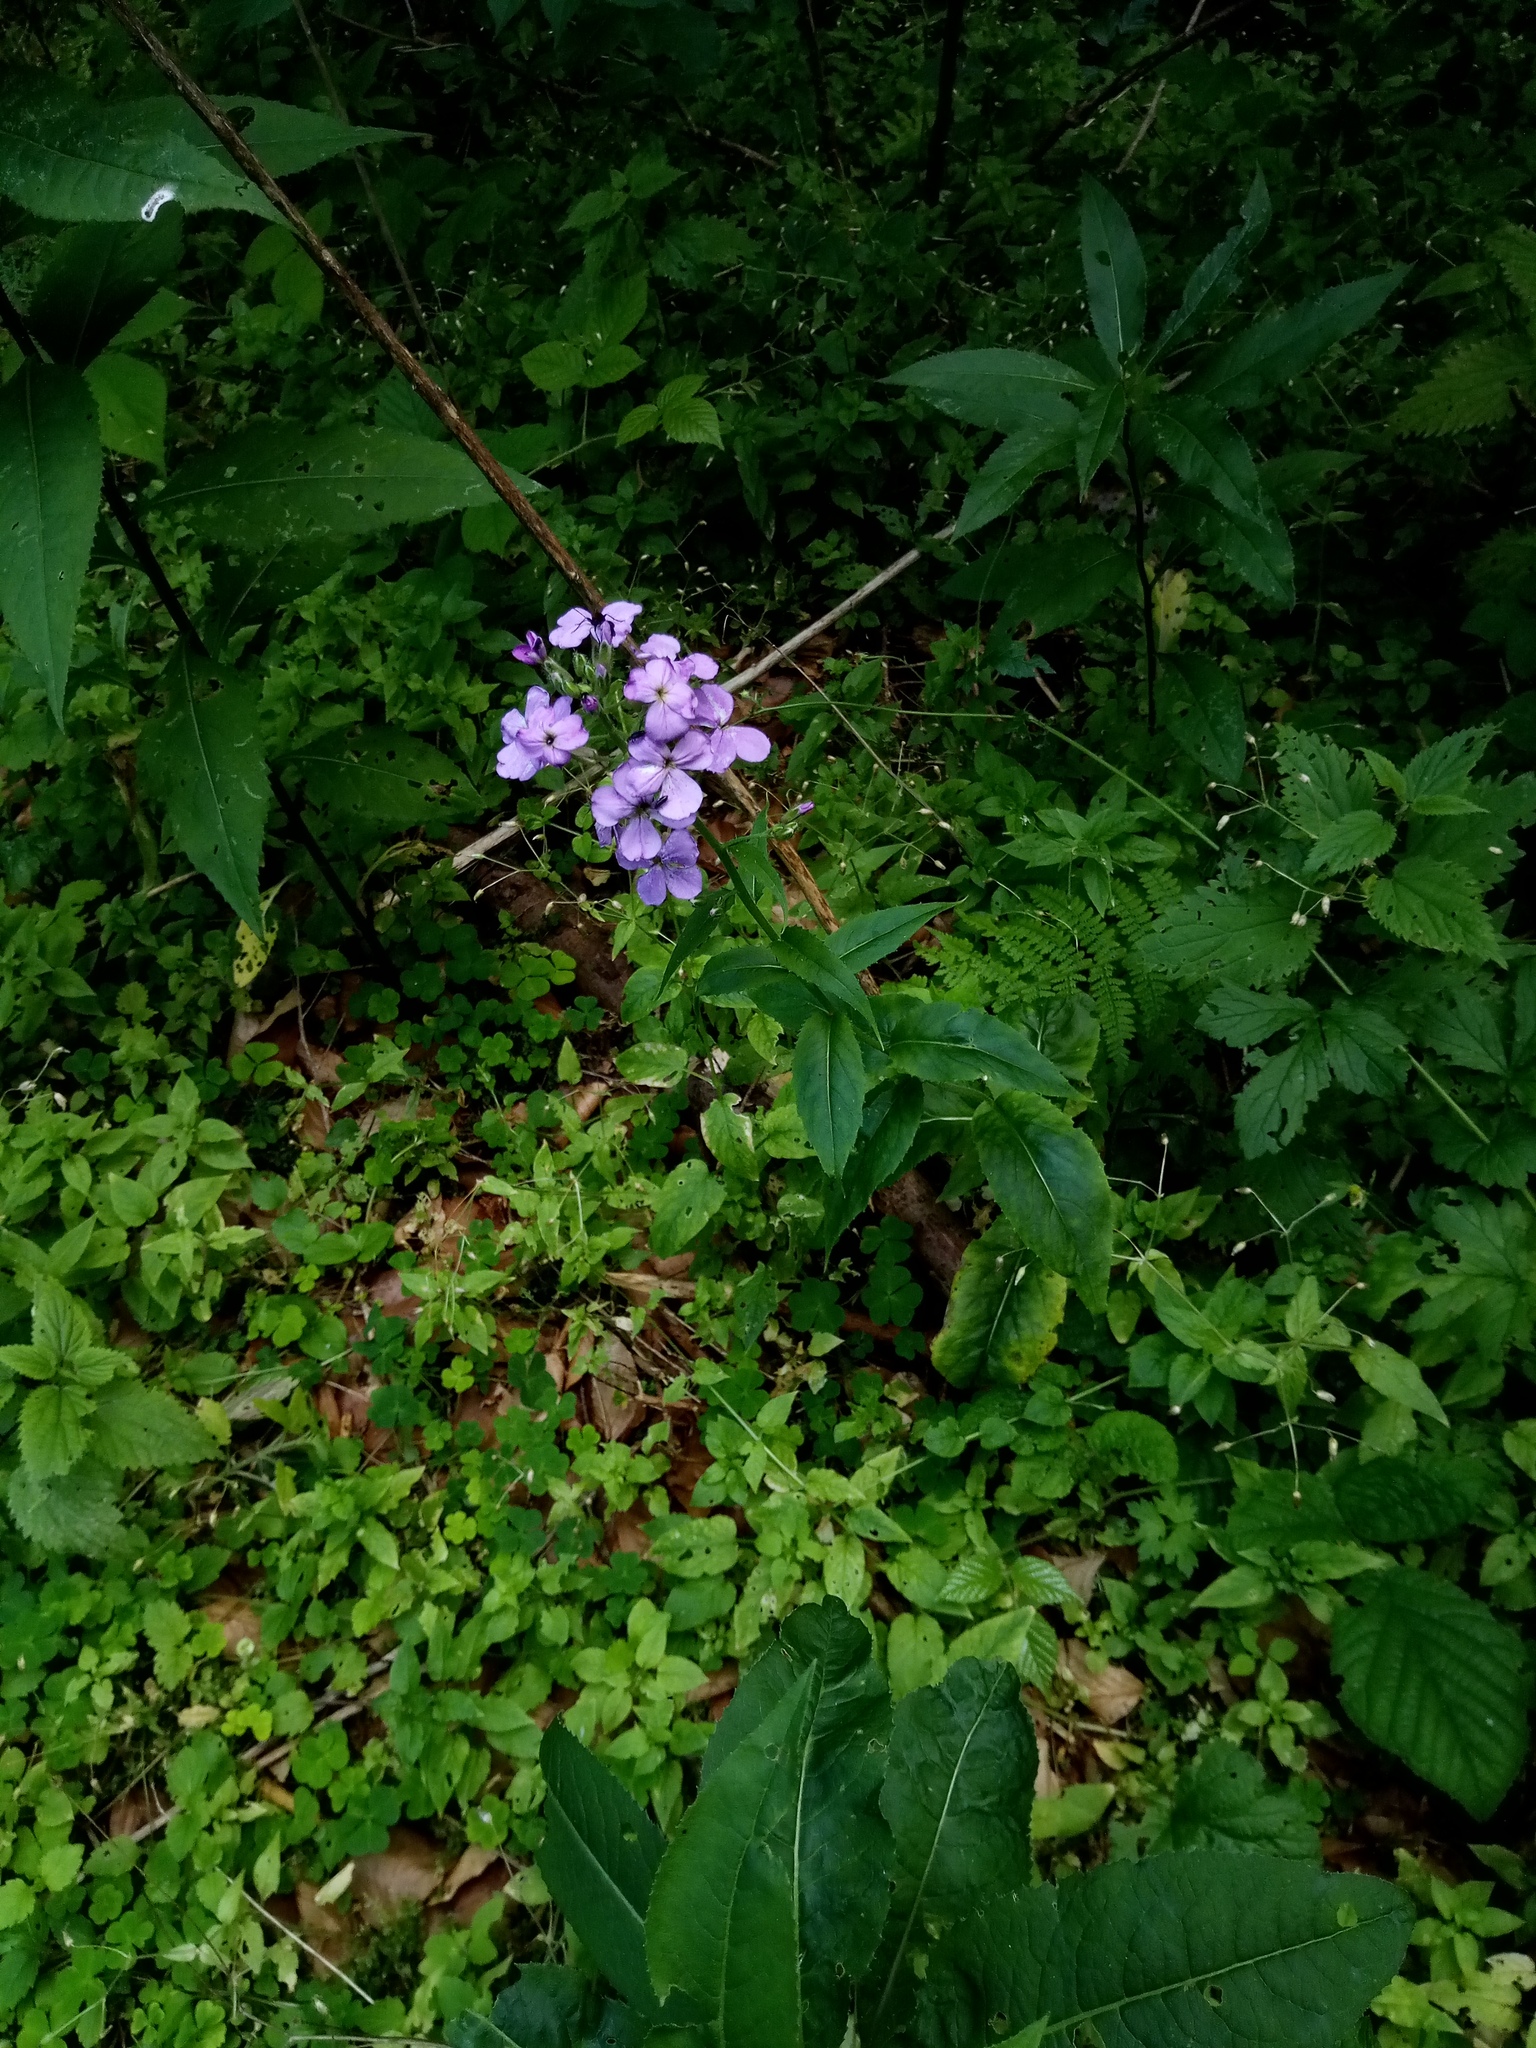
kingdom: Plantae
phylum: Tracheophyta
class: Magnoliopsida
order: Brassicales
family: Brassicaceae
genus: Hesperis
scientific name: Hesperis matronalis
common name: Dame's-violet
